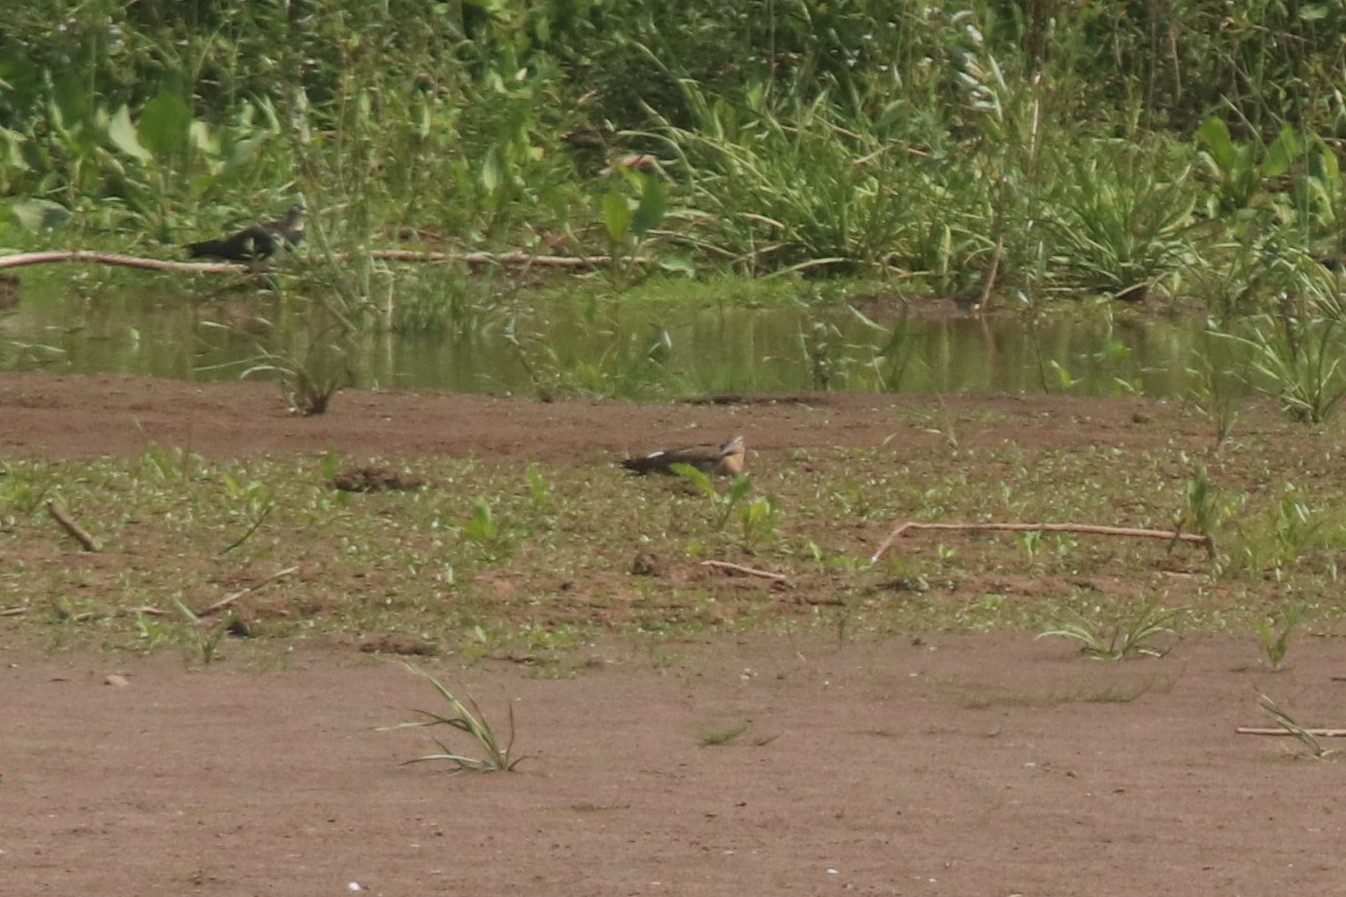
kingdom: Animalia
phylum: Chordata
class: Aves
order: Charadriiformes
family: Scolopacidae
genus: Limosa
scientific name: Limosa limosa
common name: Black-tailed godwit
